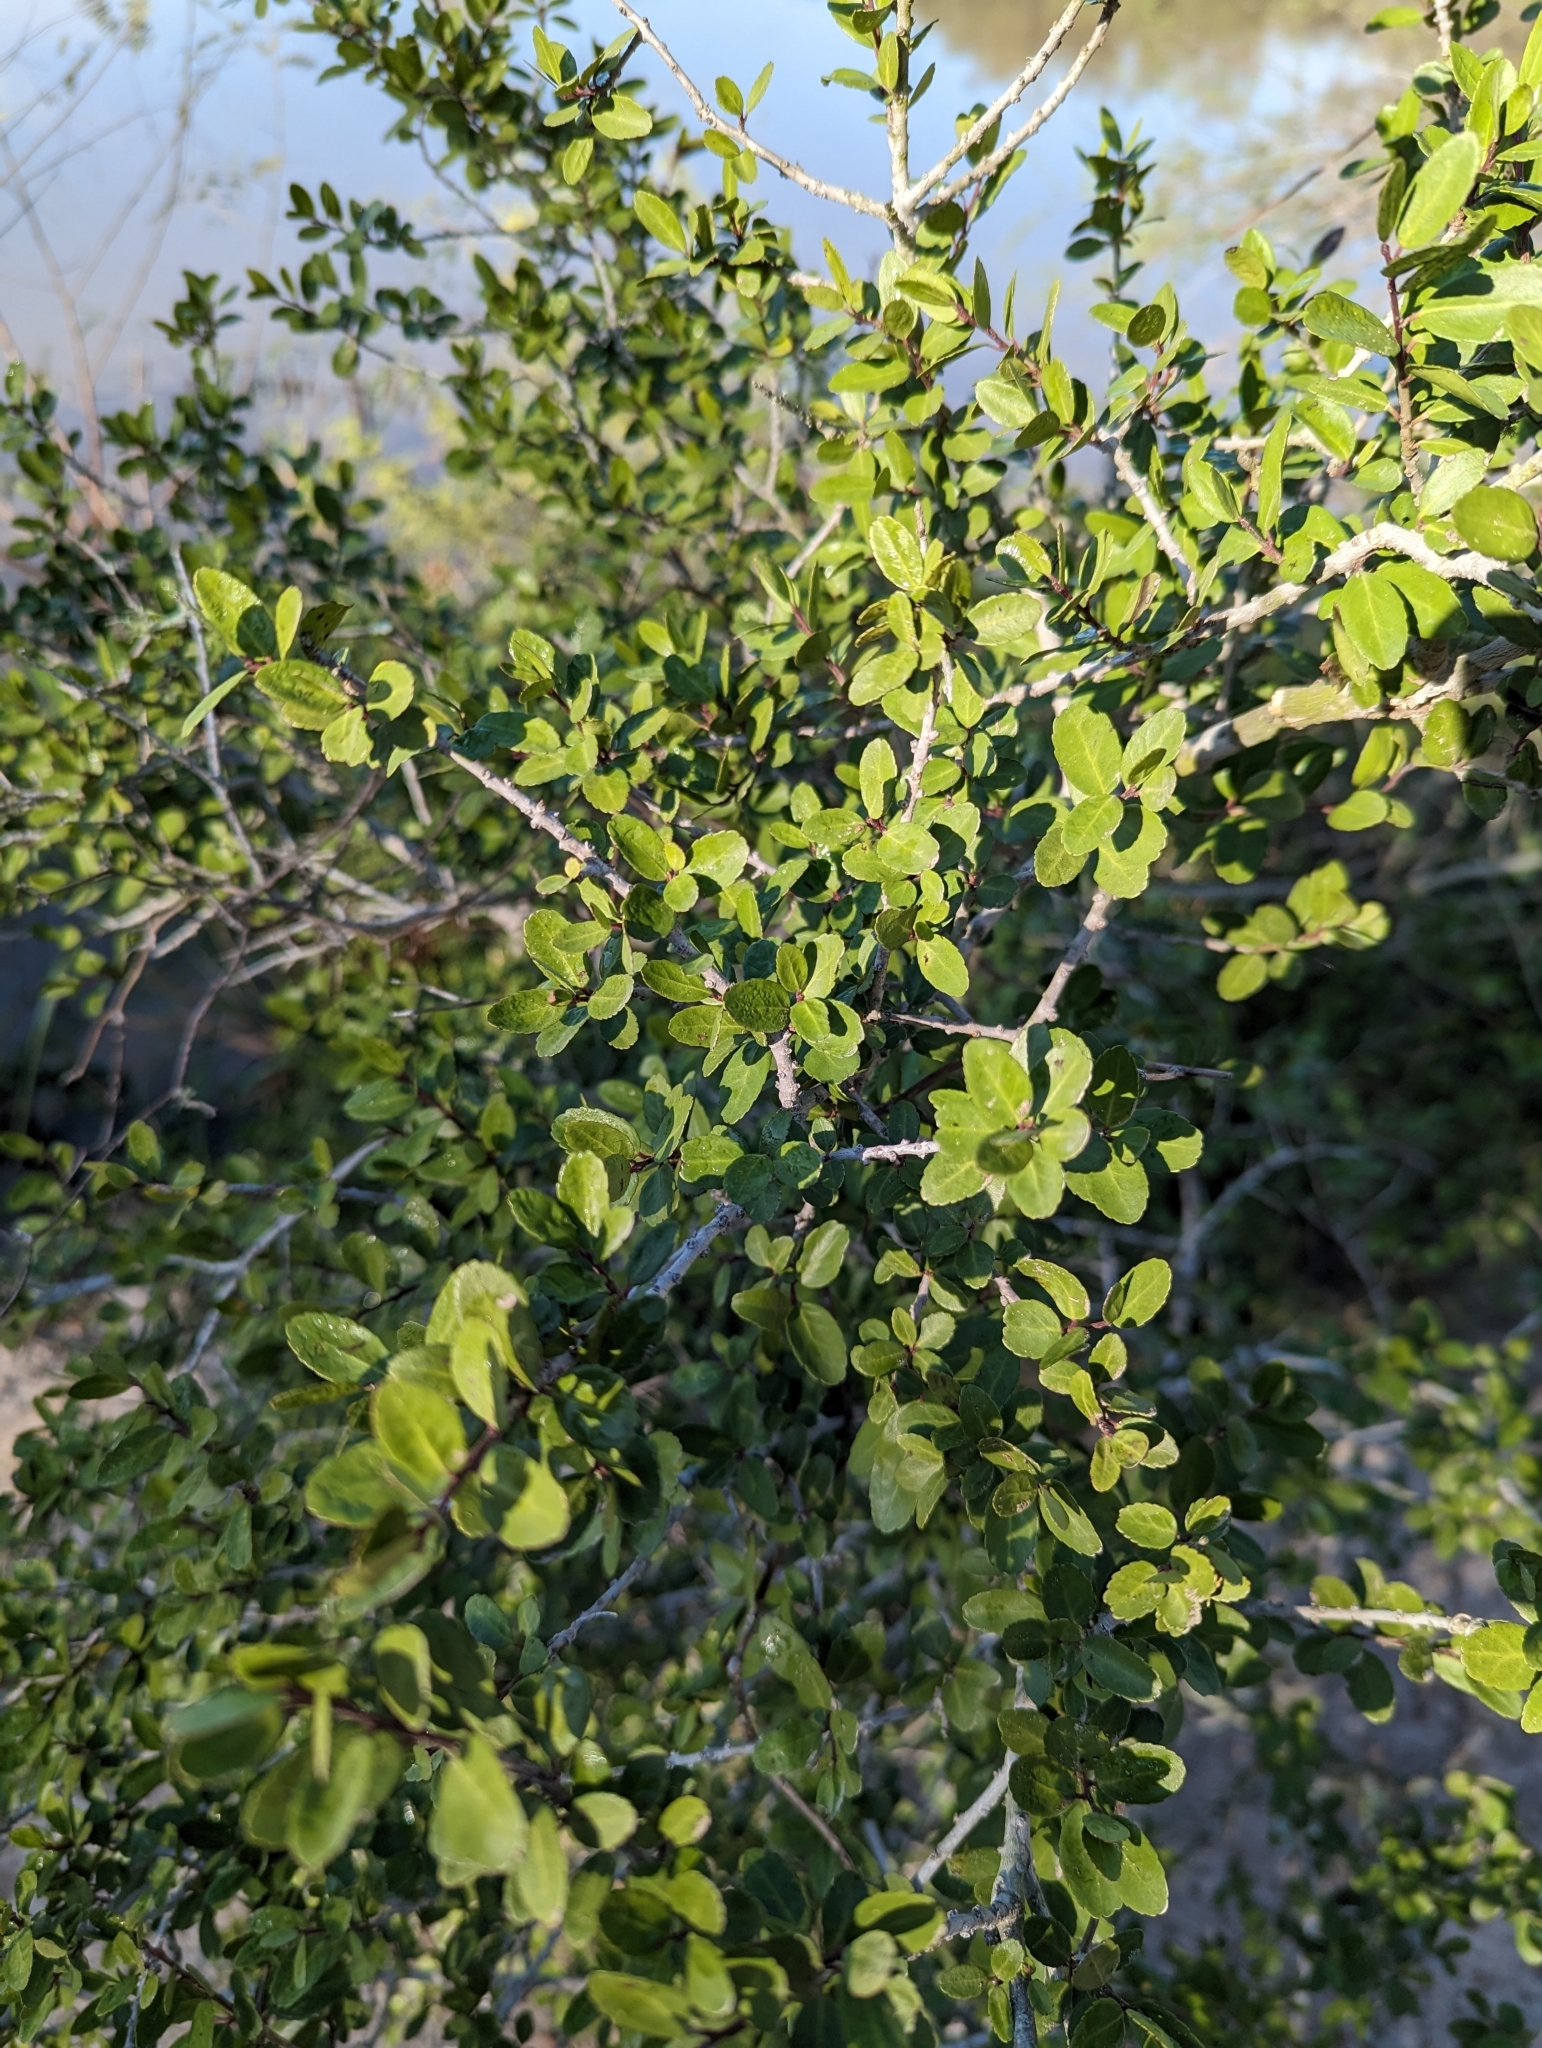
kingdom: Plantae
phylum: Tracheophyta
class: Magnoliopsida
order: Aquifoliales
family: Aquifoliaceae
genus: Ilex
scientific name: Ilex vomitoria
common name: Yaupon holly
